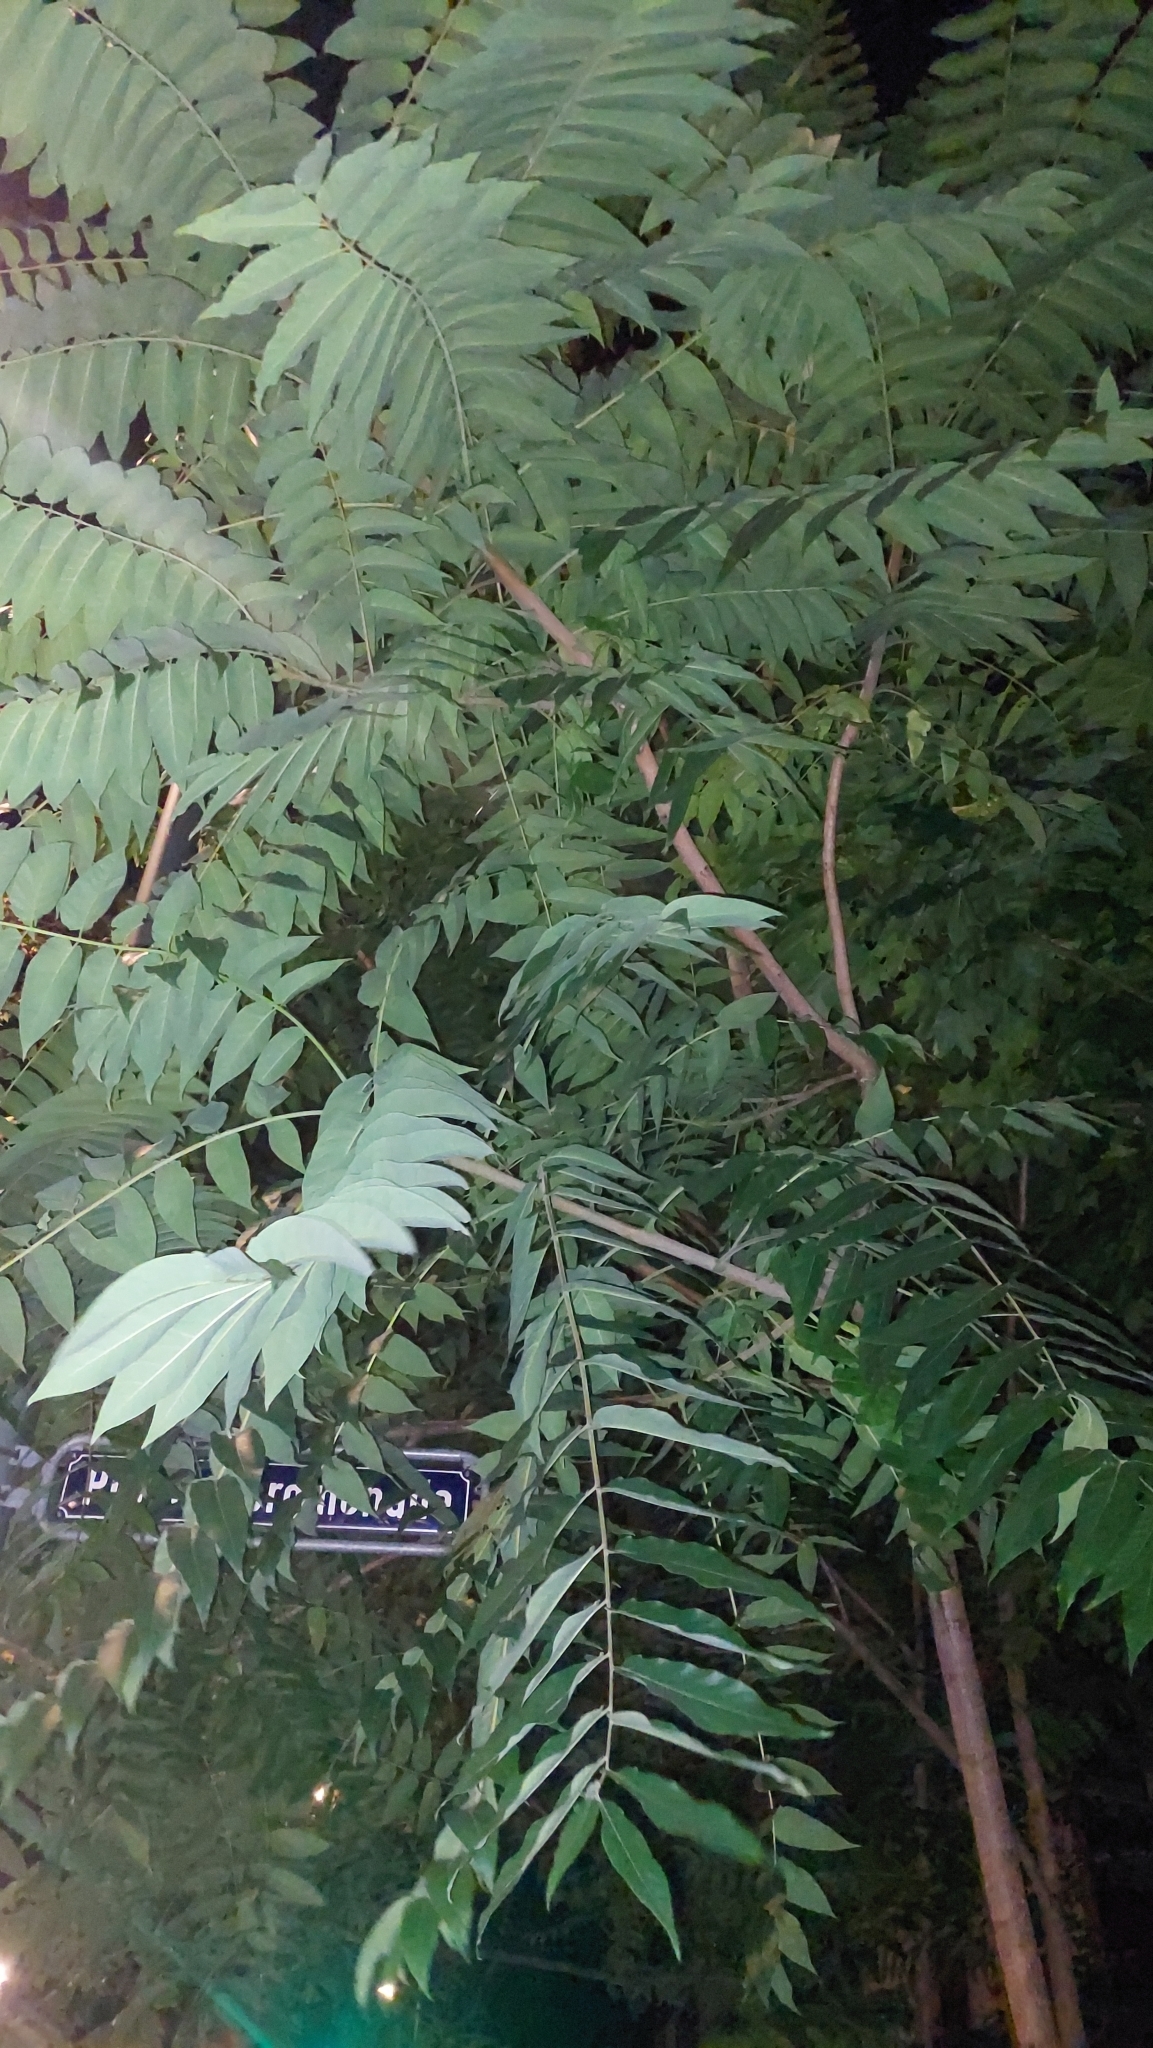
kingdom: Plantae
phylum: Tracheophyta
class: Magnoliopsida
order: Sapindales
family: Simaroubaceae
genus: Ailanthus
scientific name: Ailanthus altissima
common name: Tree-of-heaven
